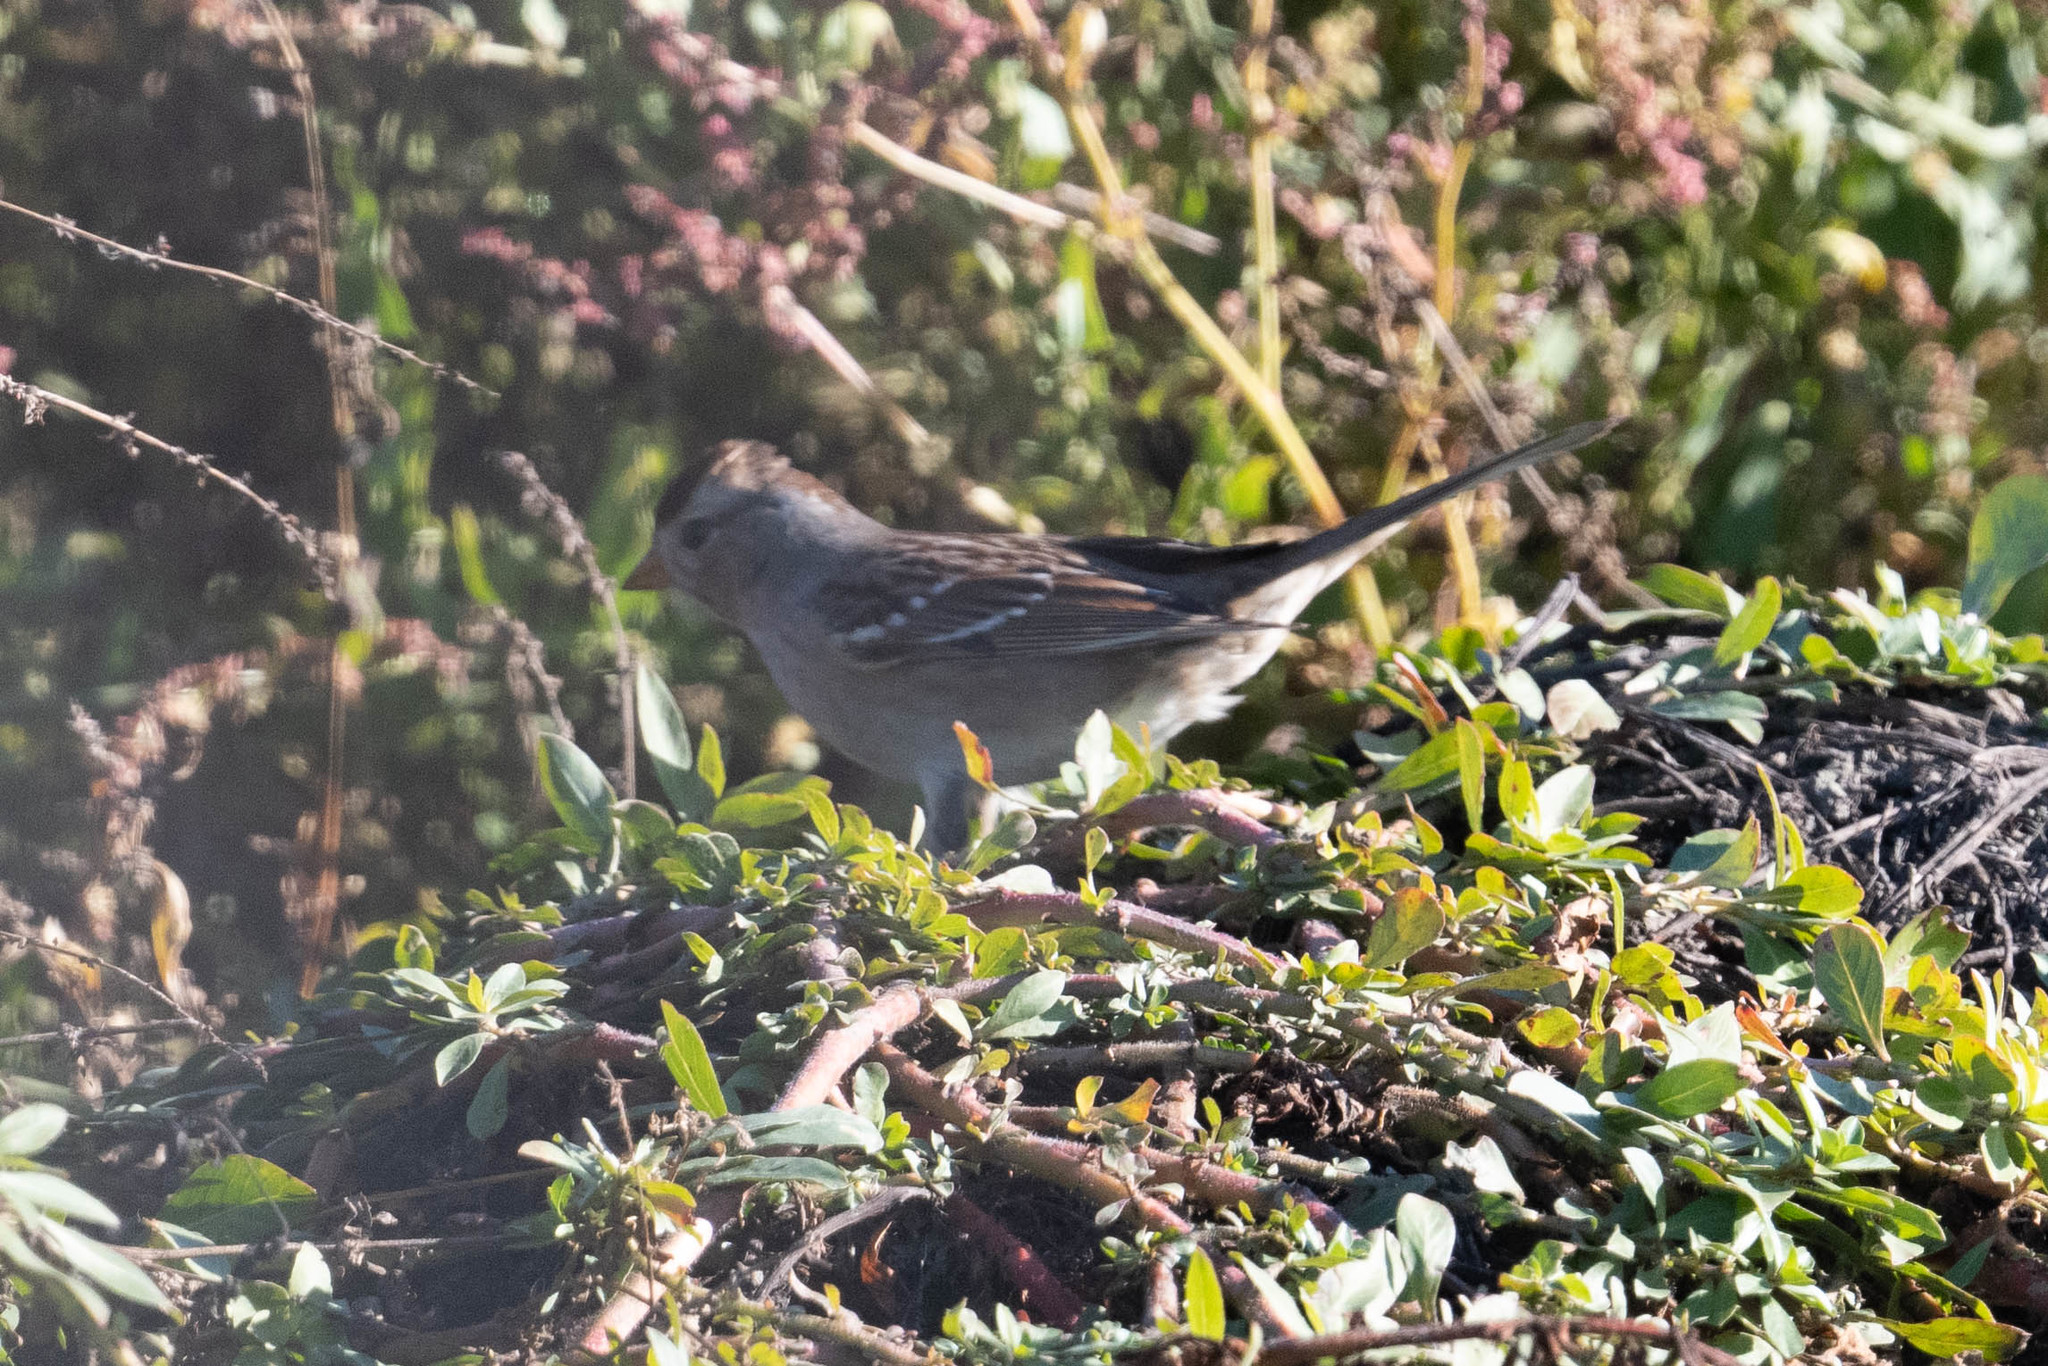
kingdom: Animalia
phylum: Chordata
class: Aves
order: Passeriformes
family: Passerellidae
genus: Zonotrichia
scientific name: Zonotrichia leucophrys
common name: White-crowned sparrow
